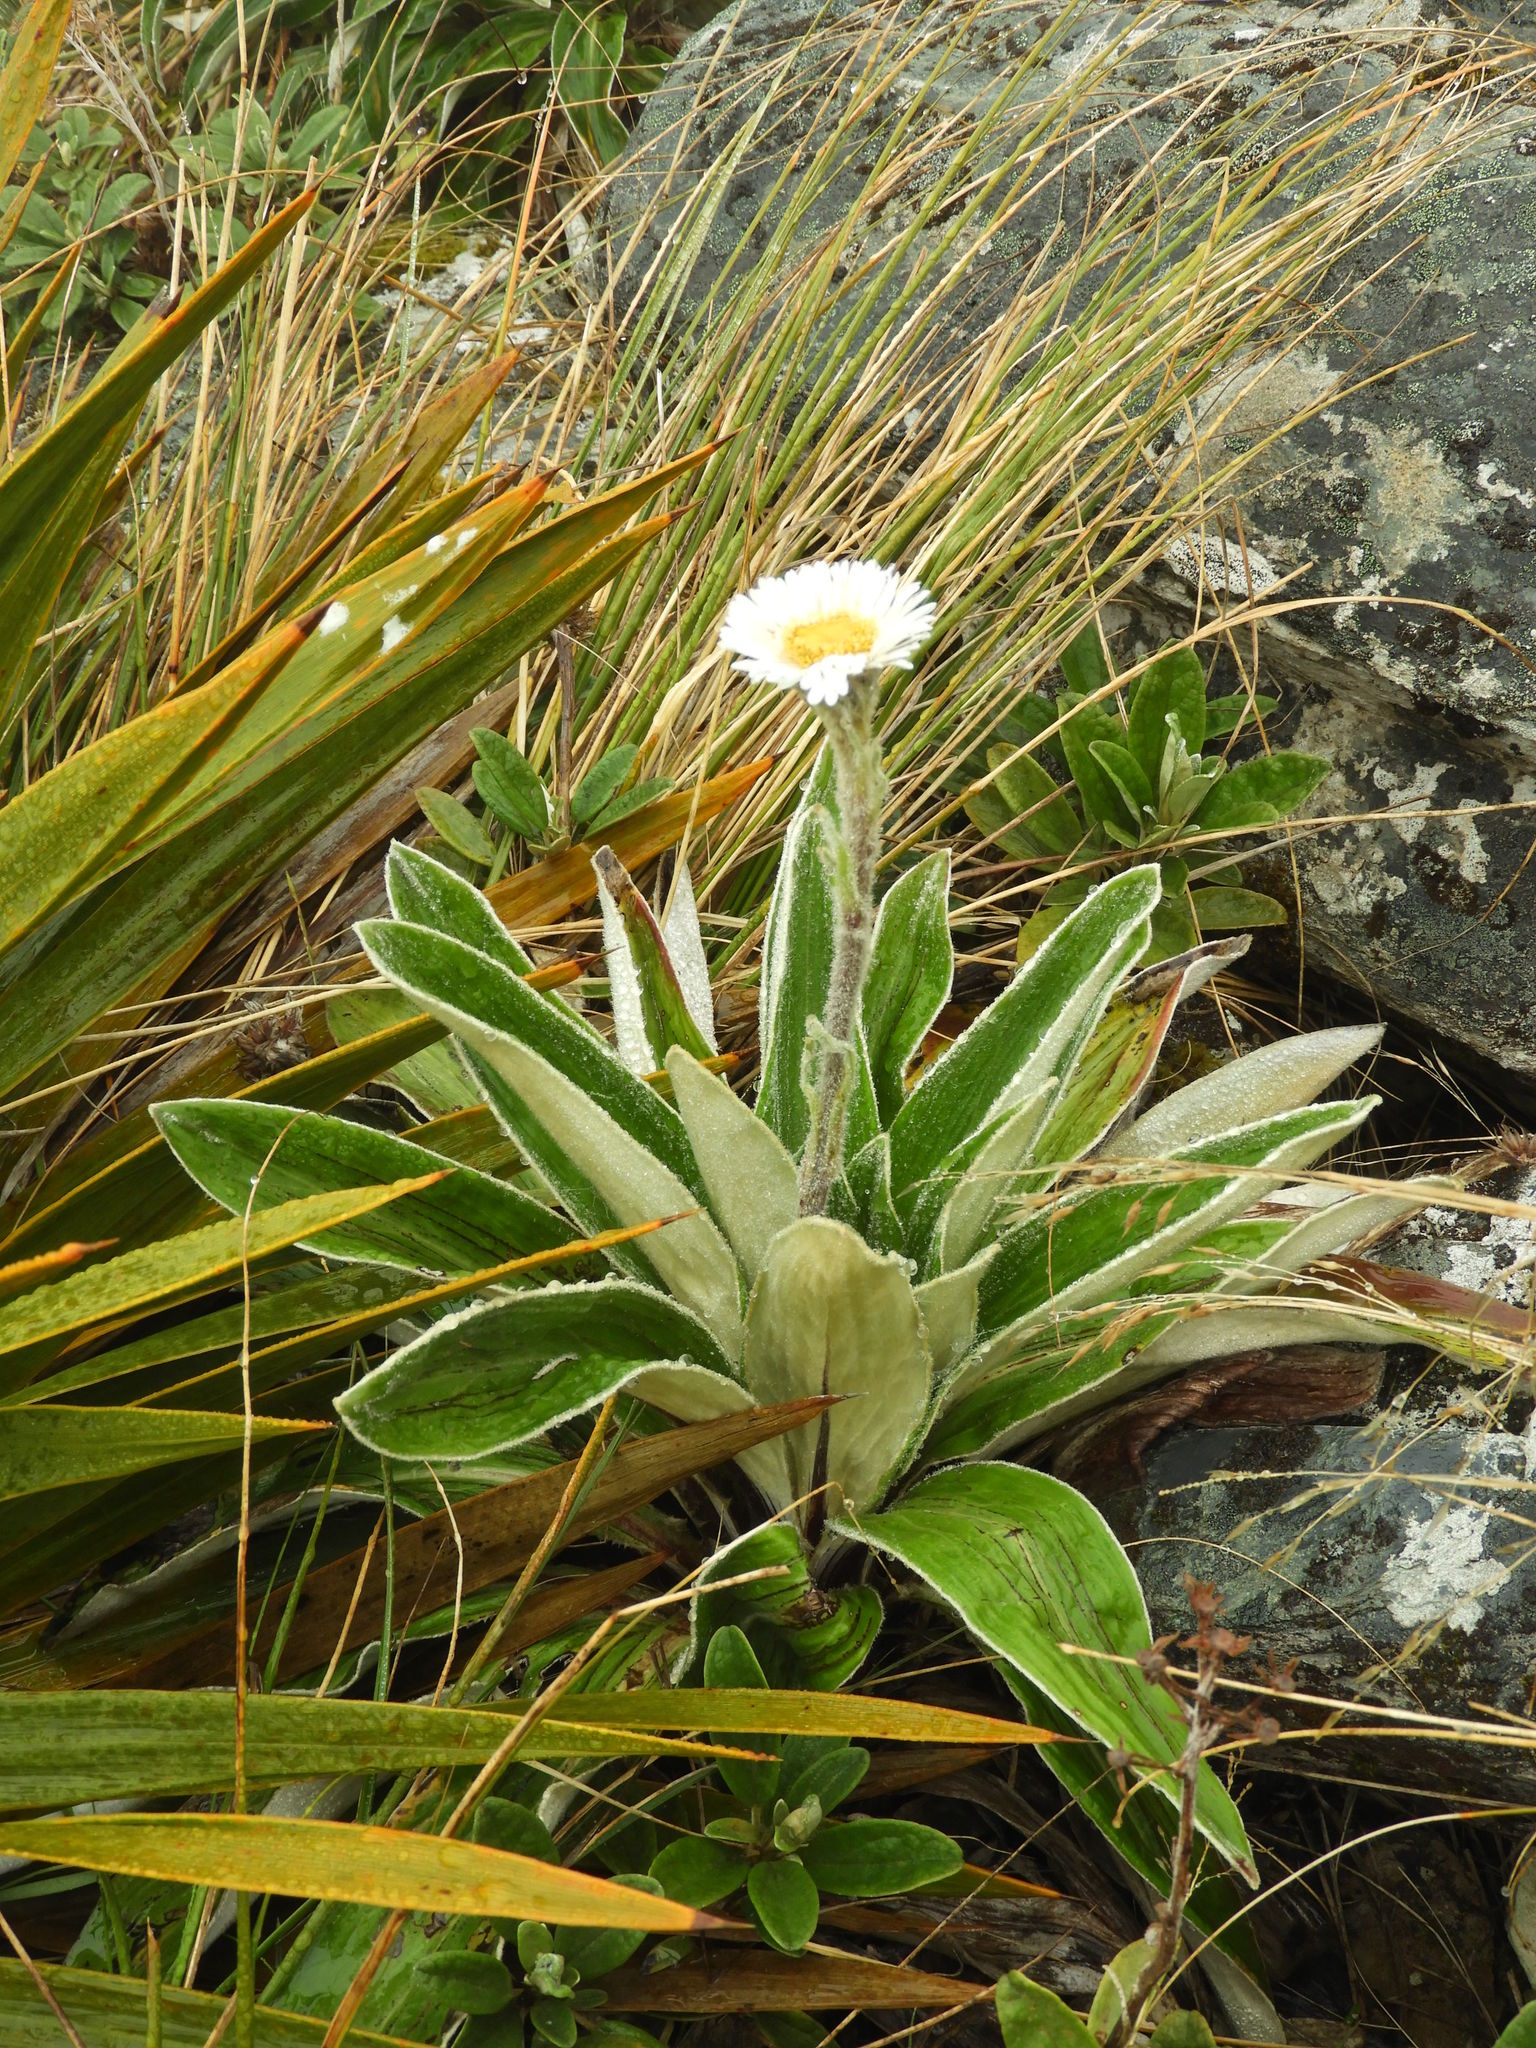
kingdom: Plantae
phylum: Tracheophyta
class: Magnoliopsida
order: Asterales
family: Asteraceae
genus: Celmisia
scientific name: Celmisia verbascifolia
